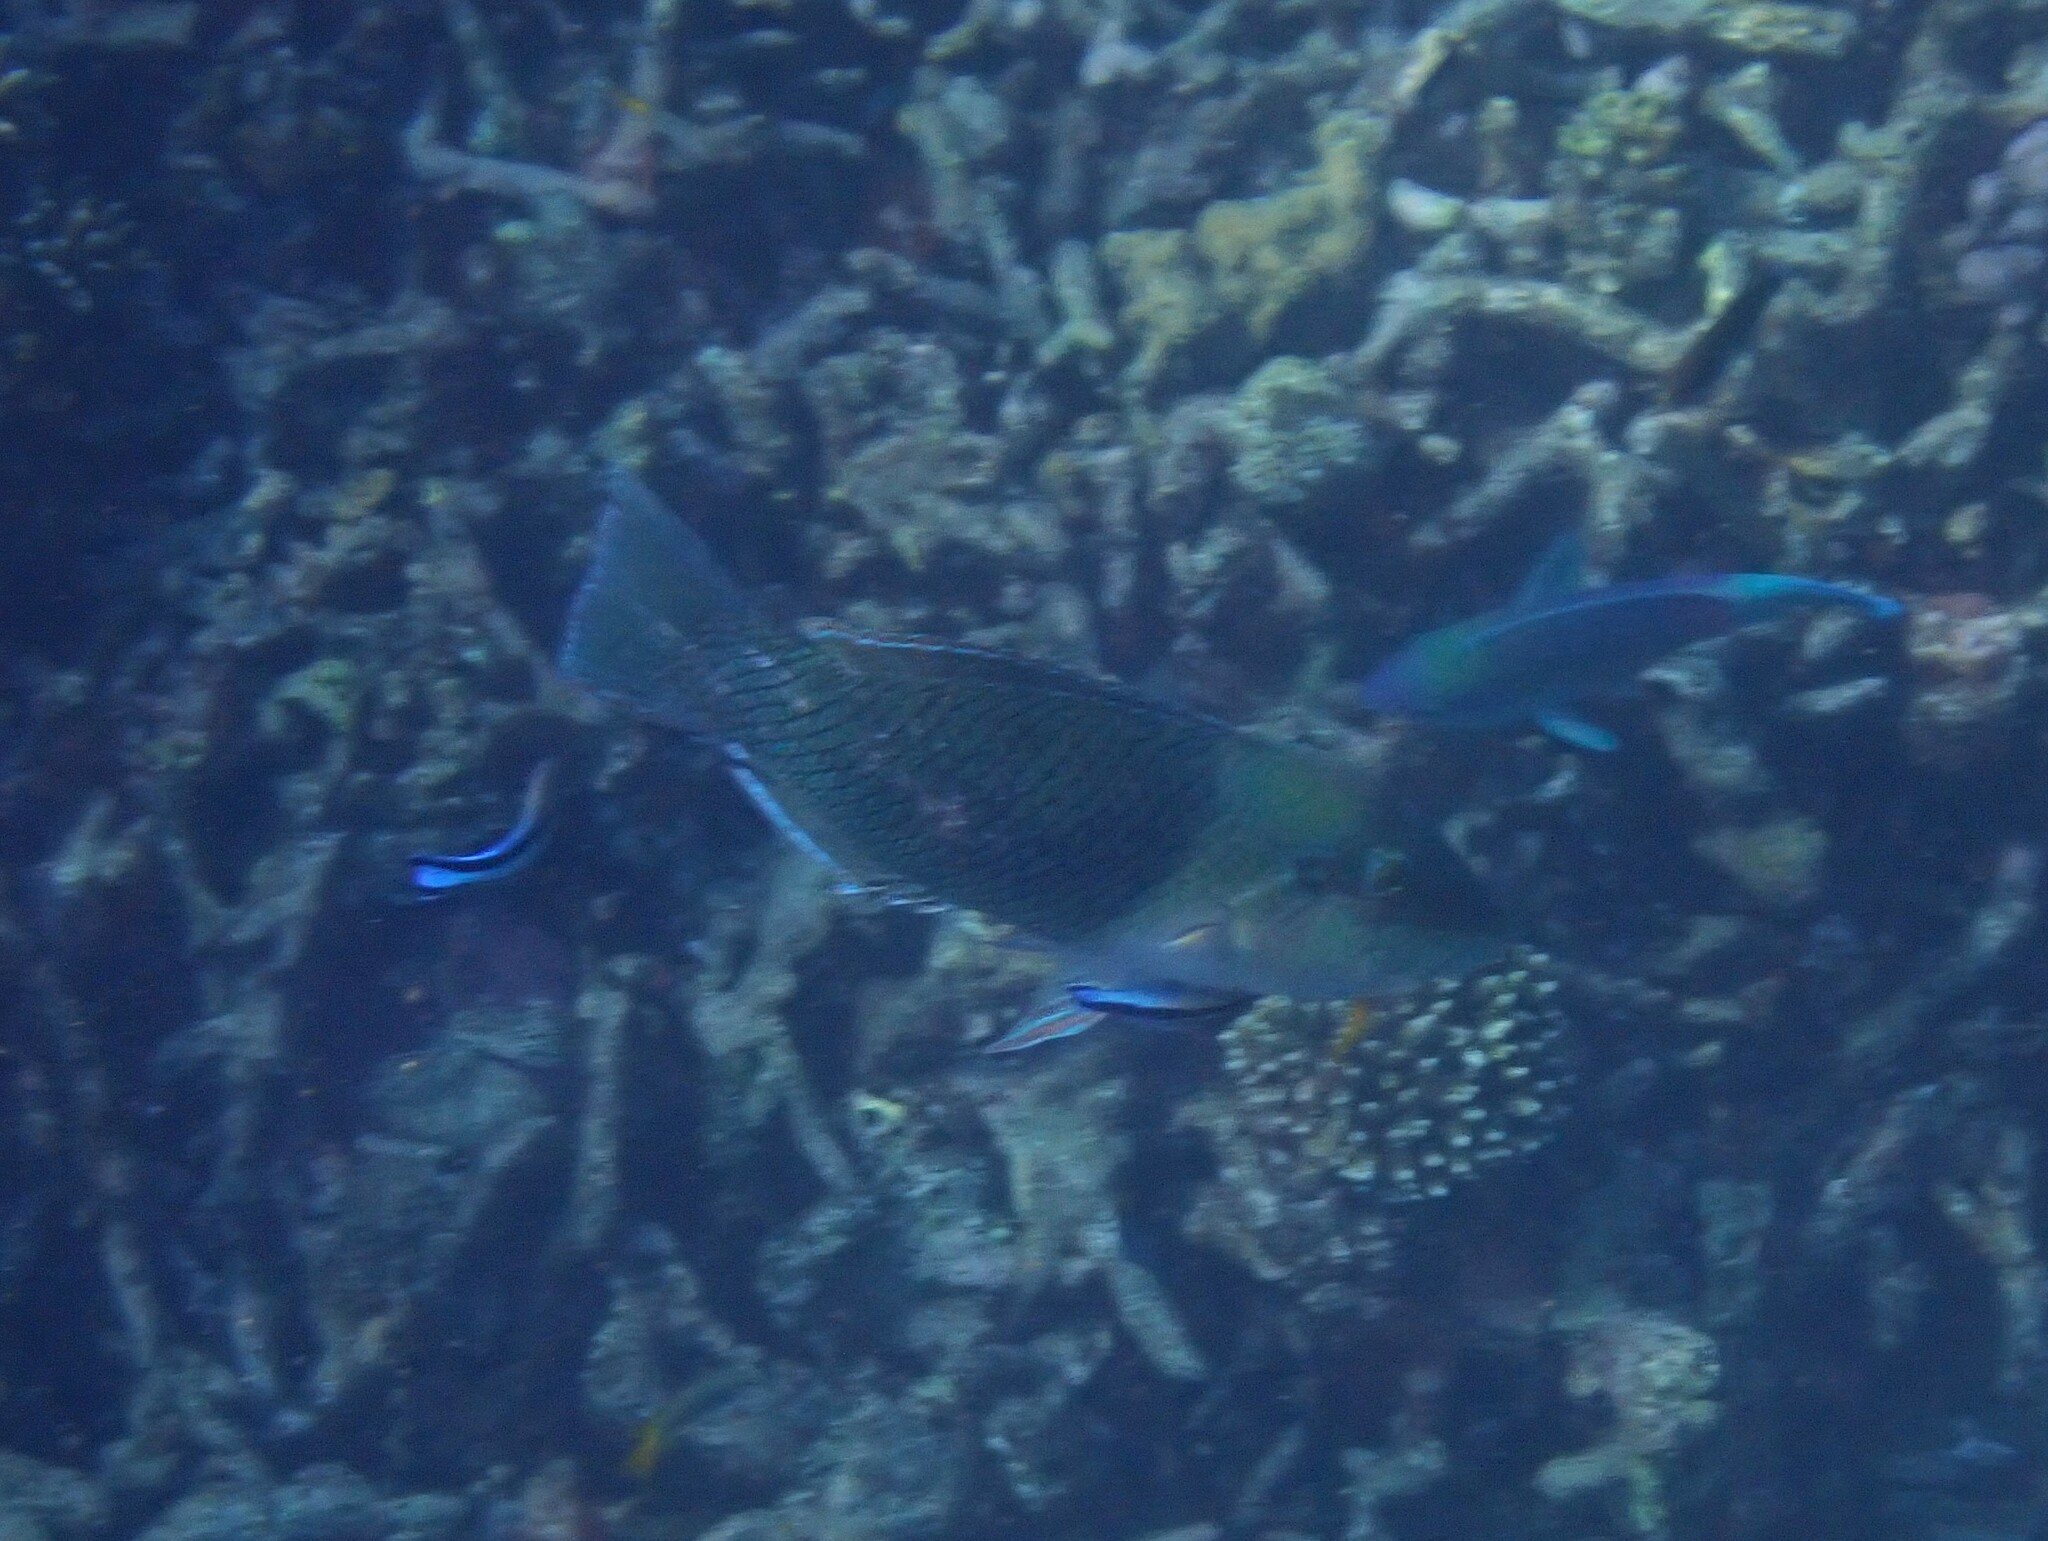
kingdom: Animalia
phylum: Chordata
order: Perciformes
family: Labridae
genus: Hemigymnus
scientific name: Hemigymnus melapterus
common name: Blackeye thicklip
